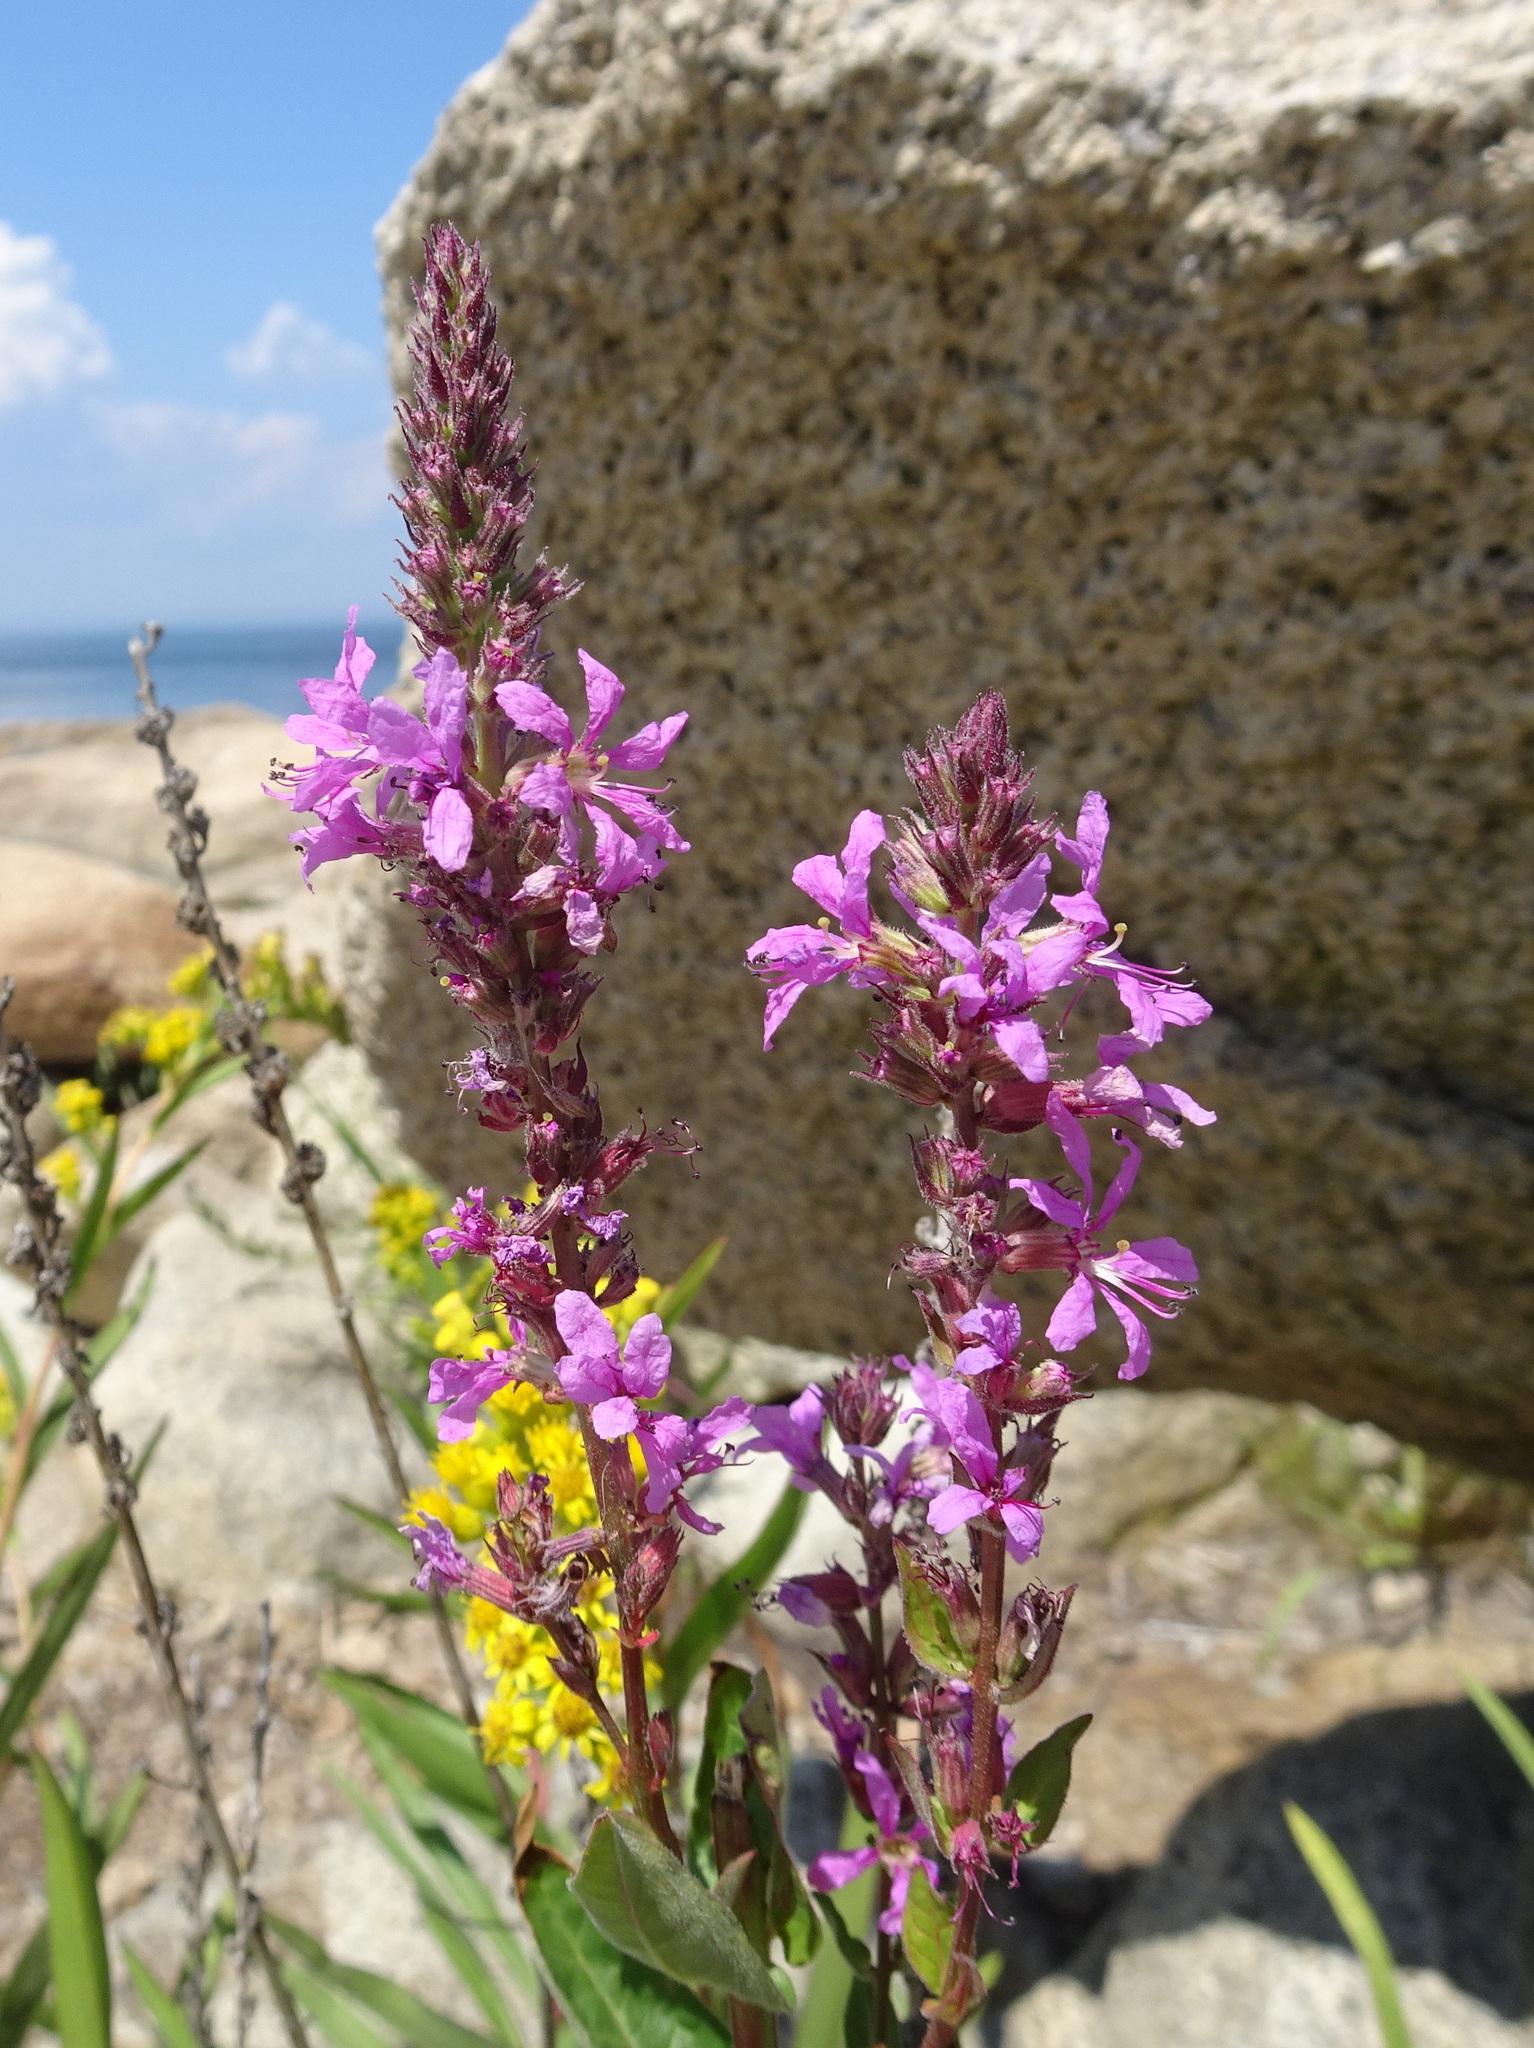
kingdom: Plantae
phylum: Tracheophyta
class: Magnoliopsida
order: Myrtales
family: Lythraceae
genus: Lythrum
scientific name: Lythrum salicaria
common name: Purple loosestrife
